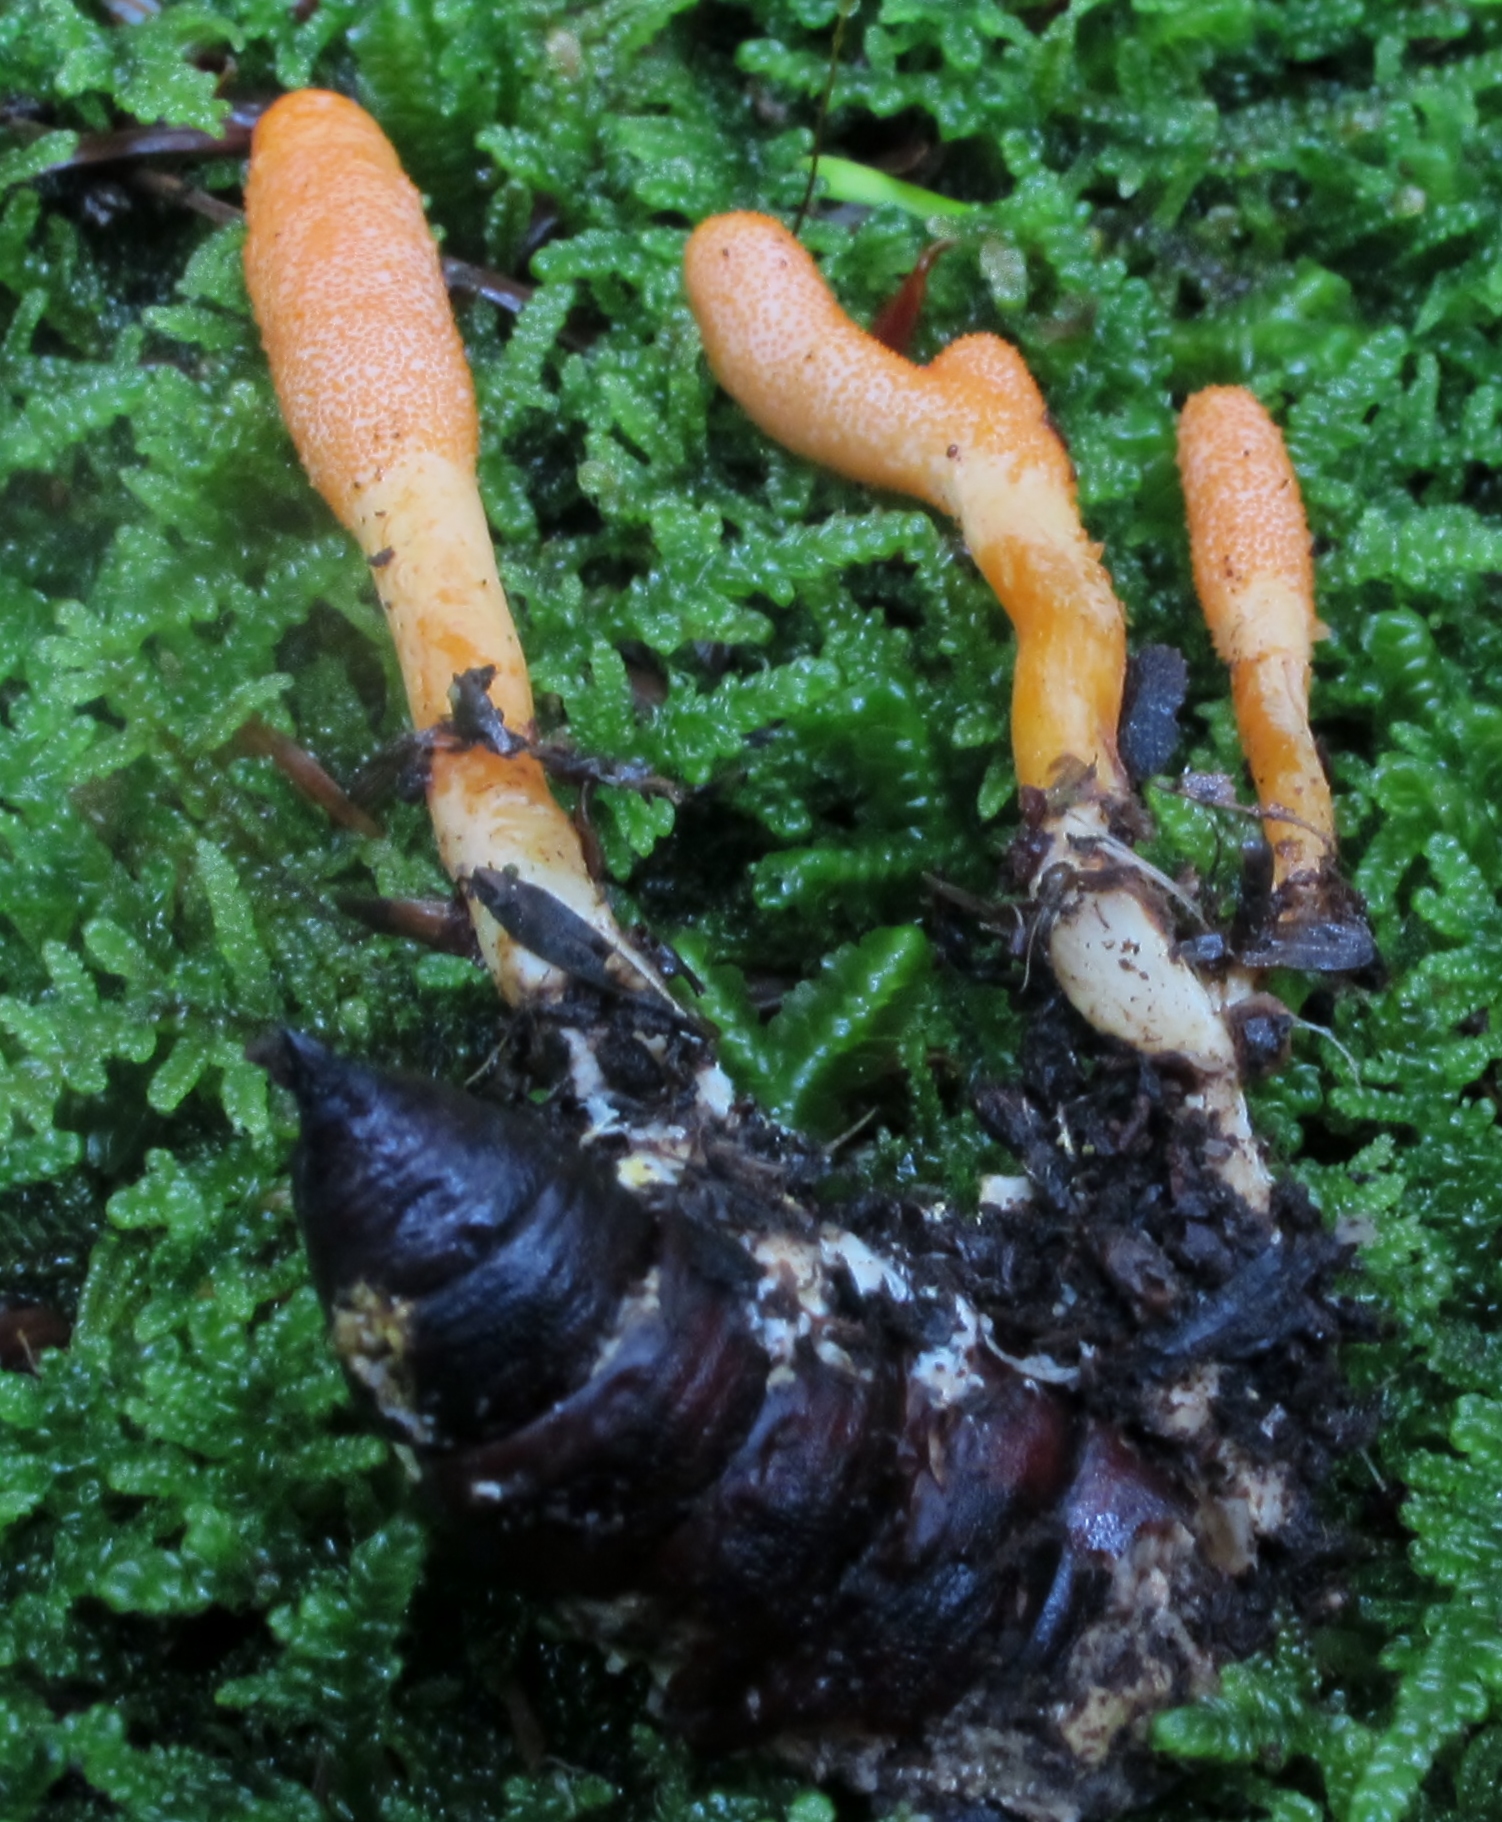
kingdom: Fungi
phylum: Ascomycota
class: Sordariomycetes
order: Hypocreales
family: Cordycipitaceae
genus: Cordyceps
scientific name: Cordyceps militaris
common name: Scarlet caterpillar fungus
